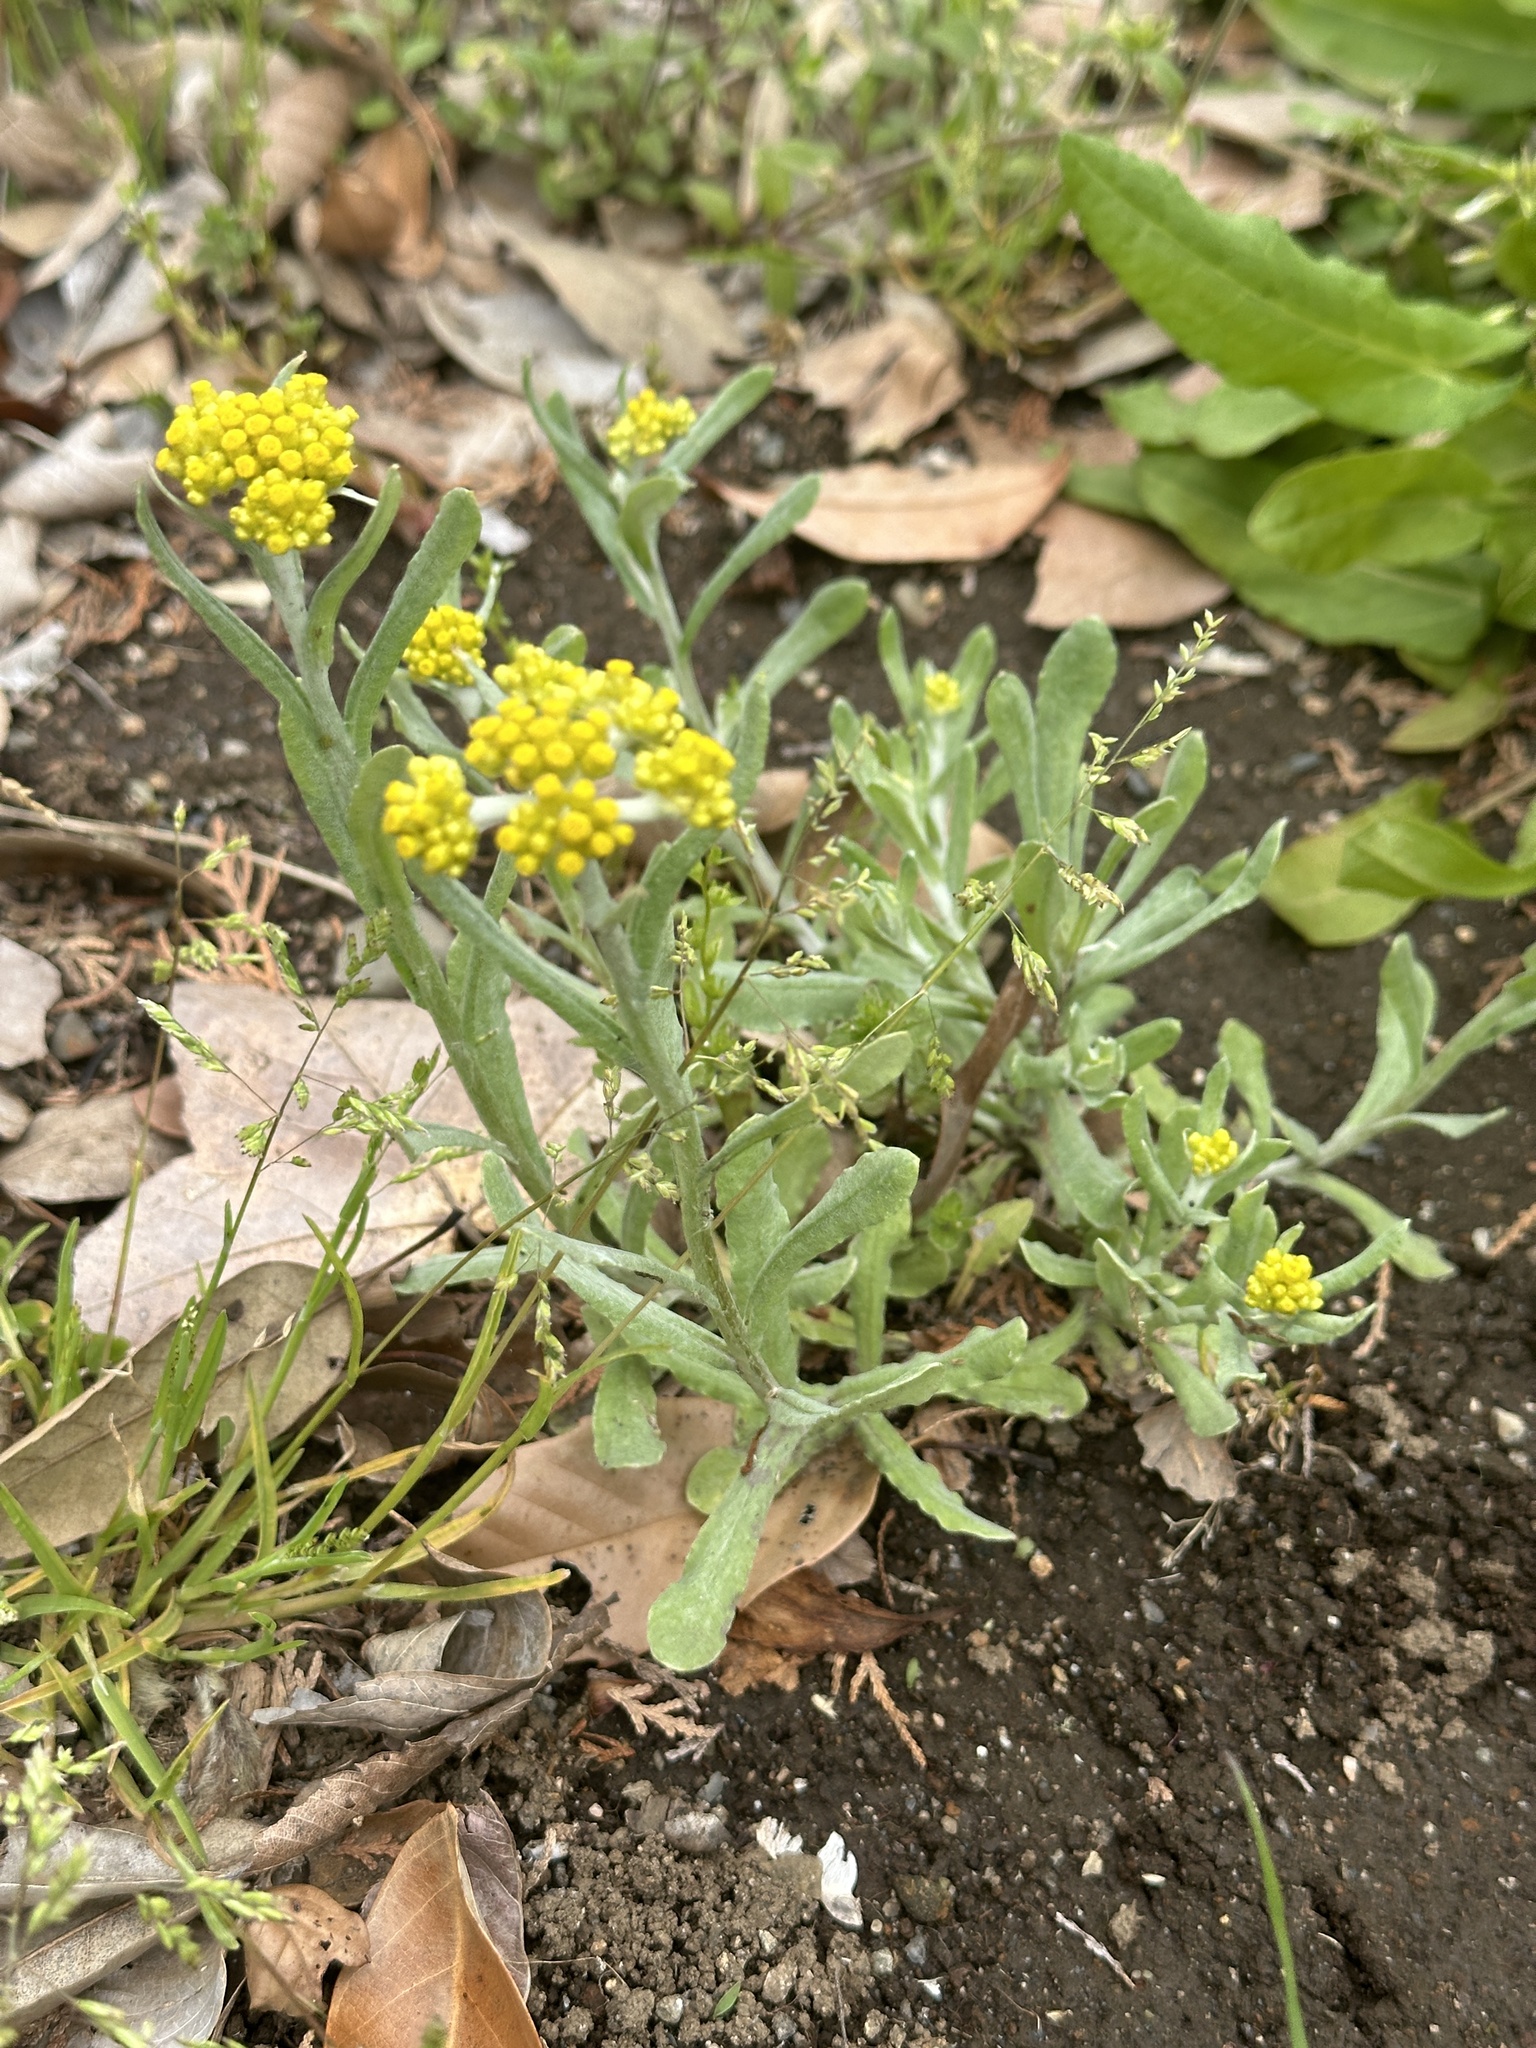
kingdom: Plantae
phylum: Tracheophyta
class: Magnoliopsida
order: Asterales
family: Asteraceae
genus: Pseudognaphalium
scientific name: Pseudognaphalium affine
